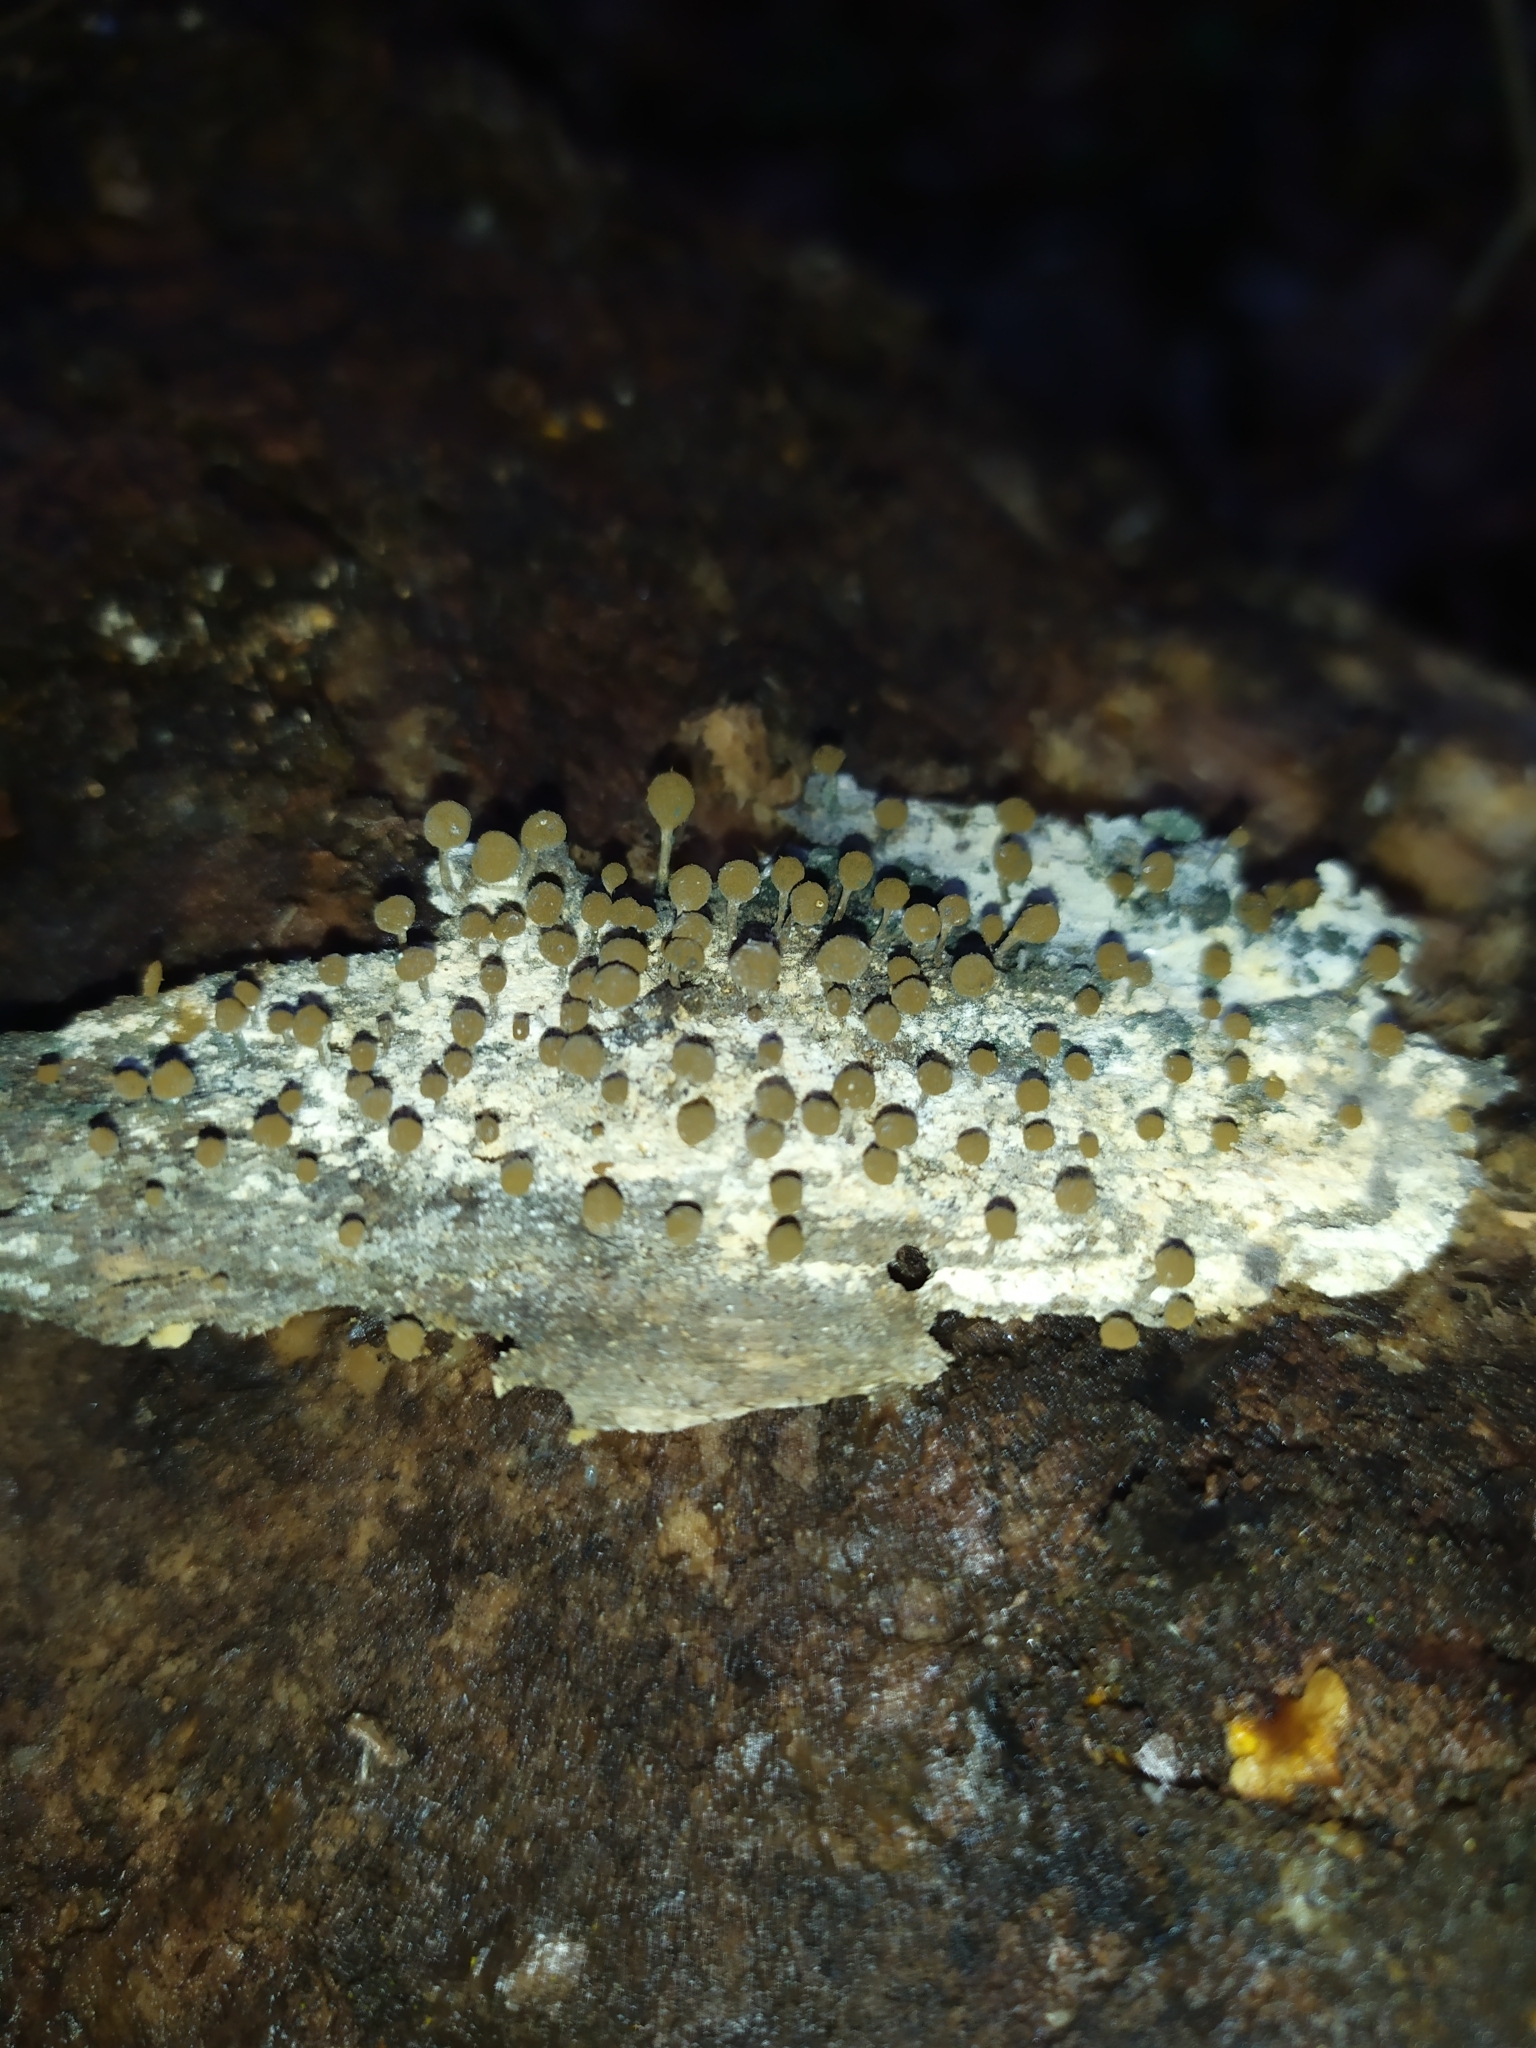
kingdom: Fungi
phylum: Basidiomycota
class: Atractiellomycetes
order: Atractiellales
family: Phleogenaceae
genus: Phleogena
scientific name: Phleogena faginea
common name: Fenugreek stalkball
